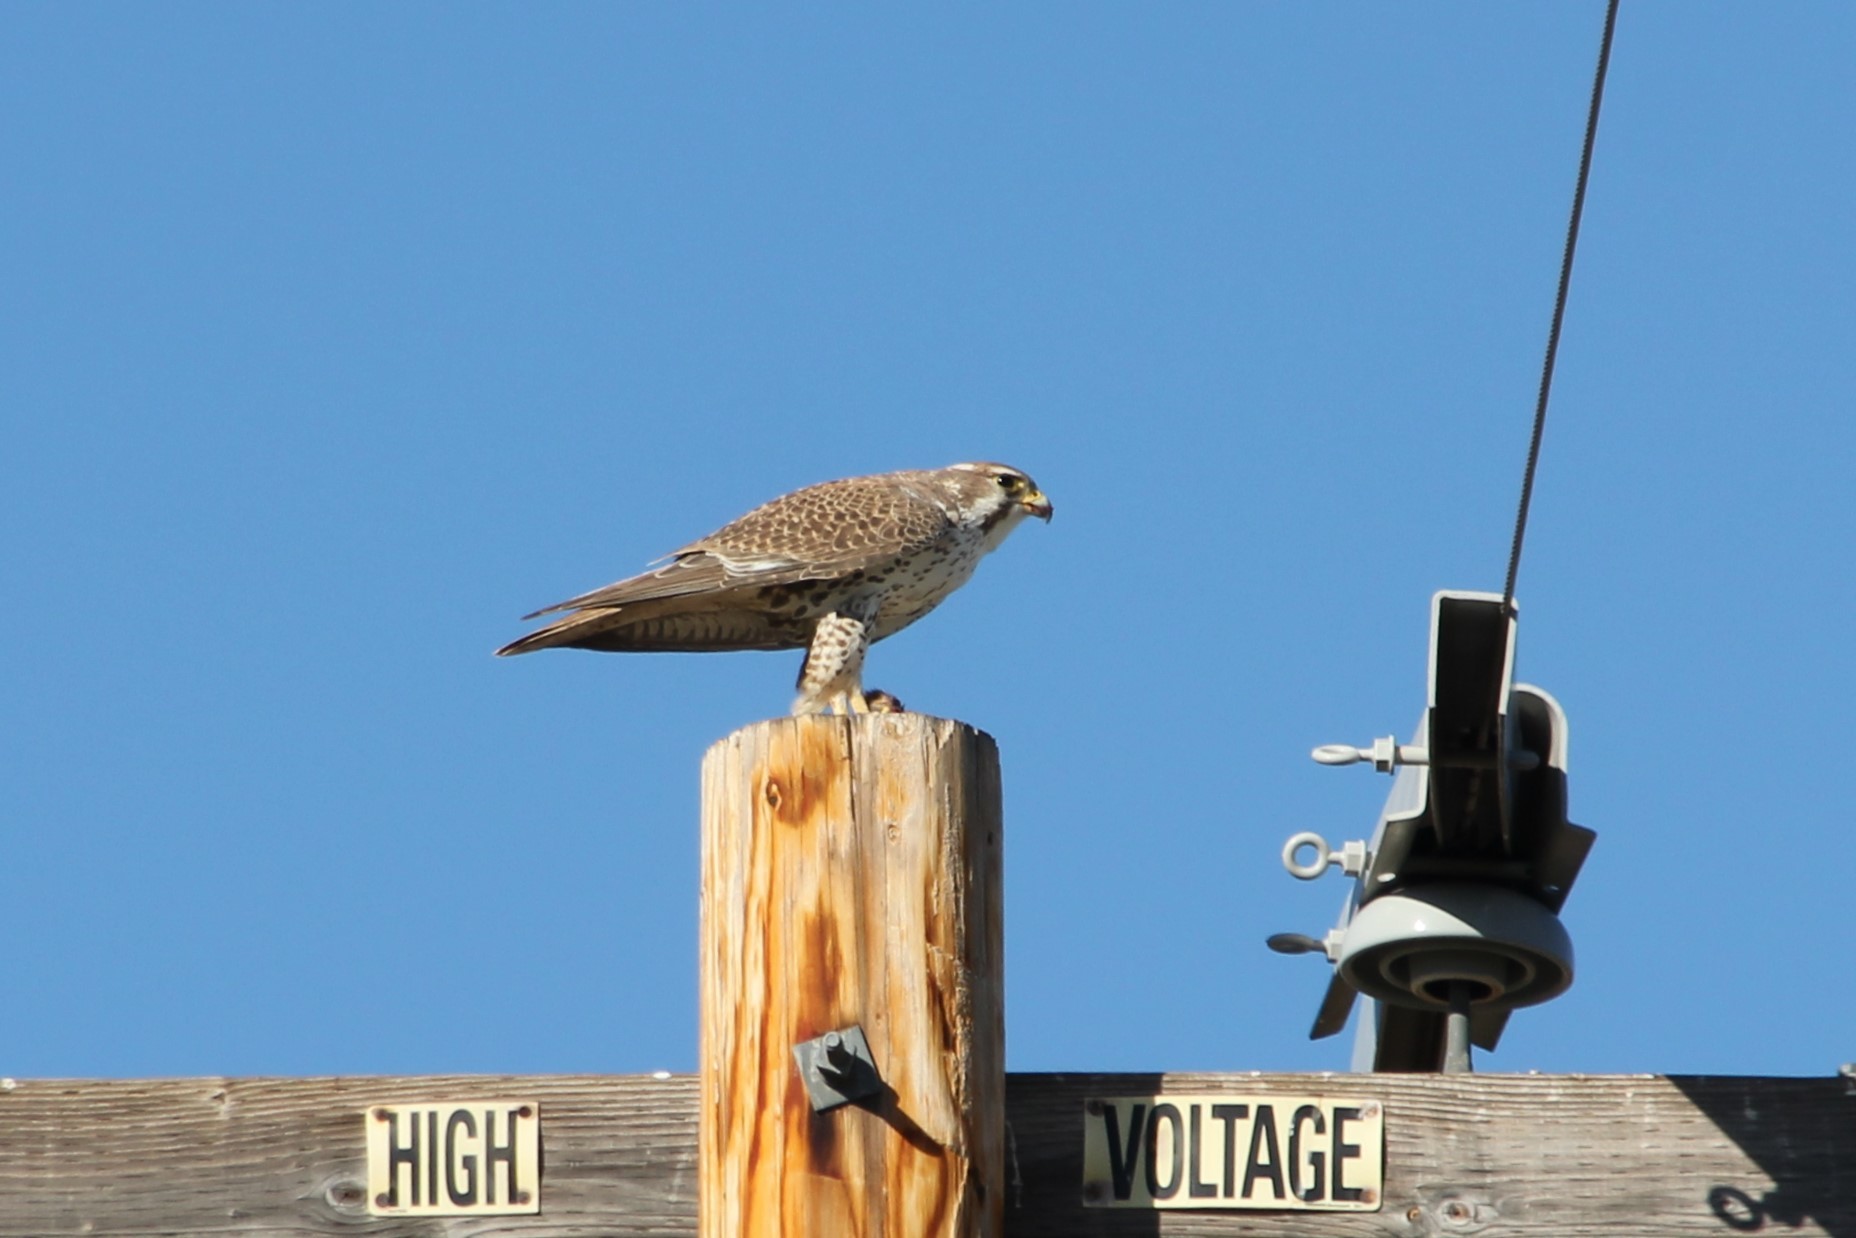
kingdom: Animalia
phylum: Chordata
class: Aves
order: Falconiformes
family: Falconidae
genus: Falco
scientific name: Falco mexicanus
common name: Prairie falcon
